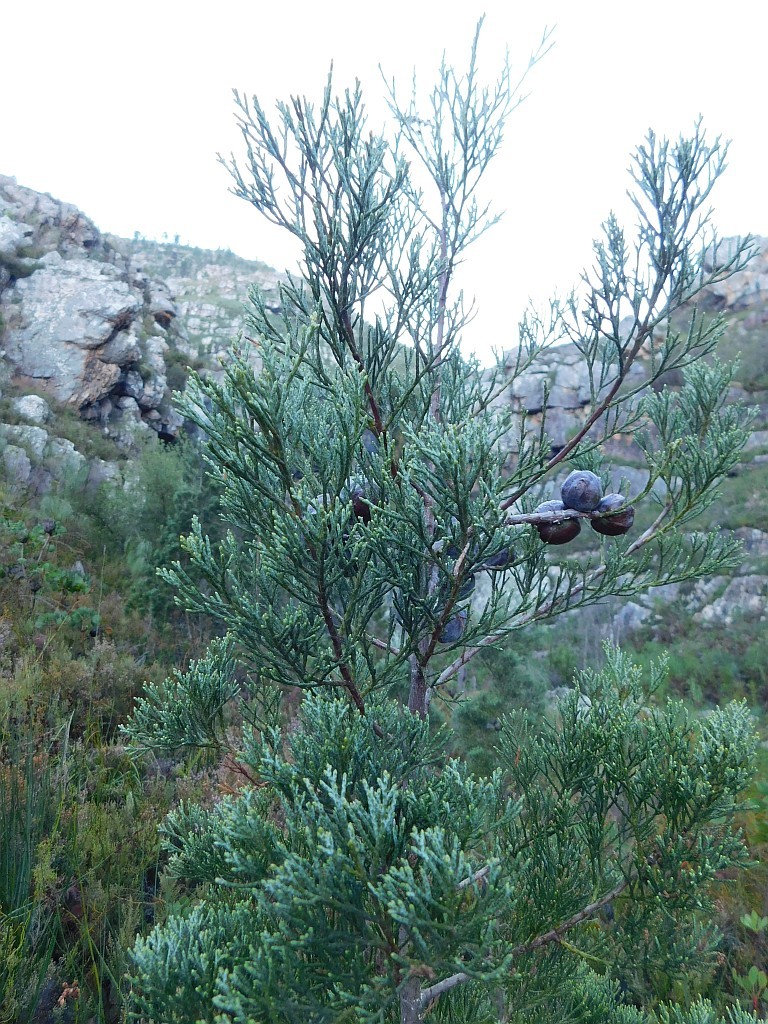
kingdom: Plantae
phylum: Tracheophyta
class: Pinopsida
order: Pinales
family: Cupressaceae
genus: Widdringtonia
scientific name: Widdringtonia nodiflora
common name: Cape cypress
